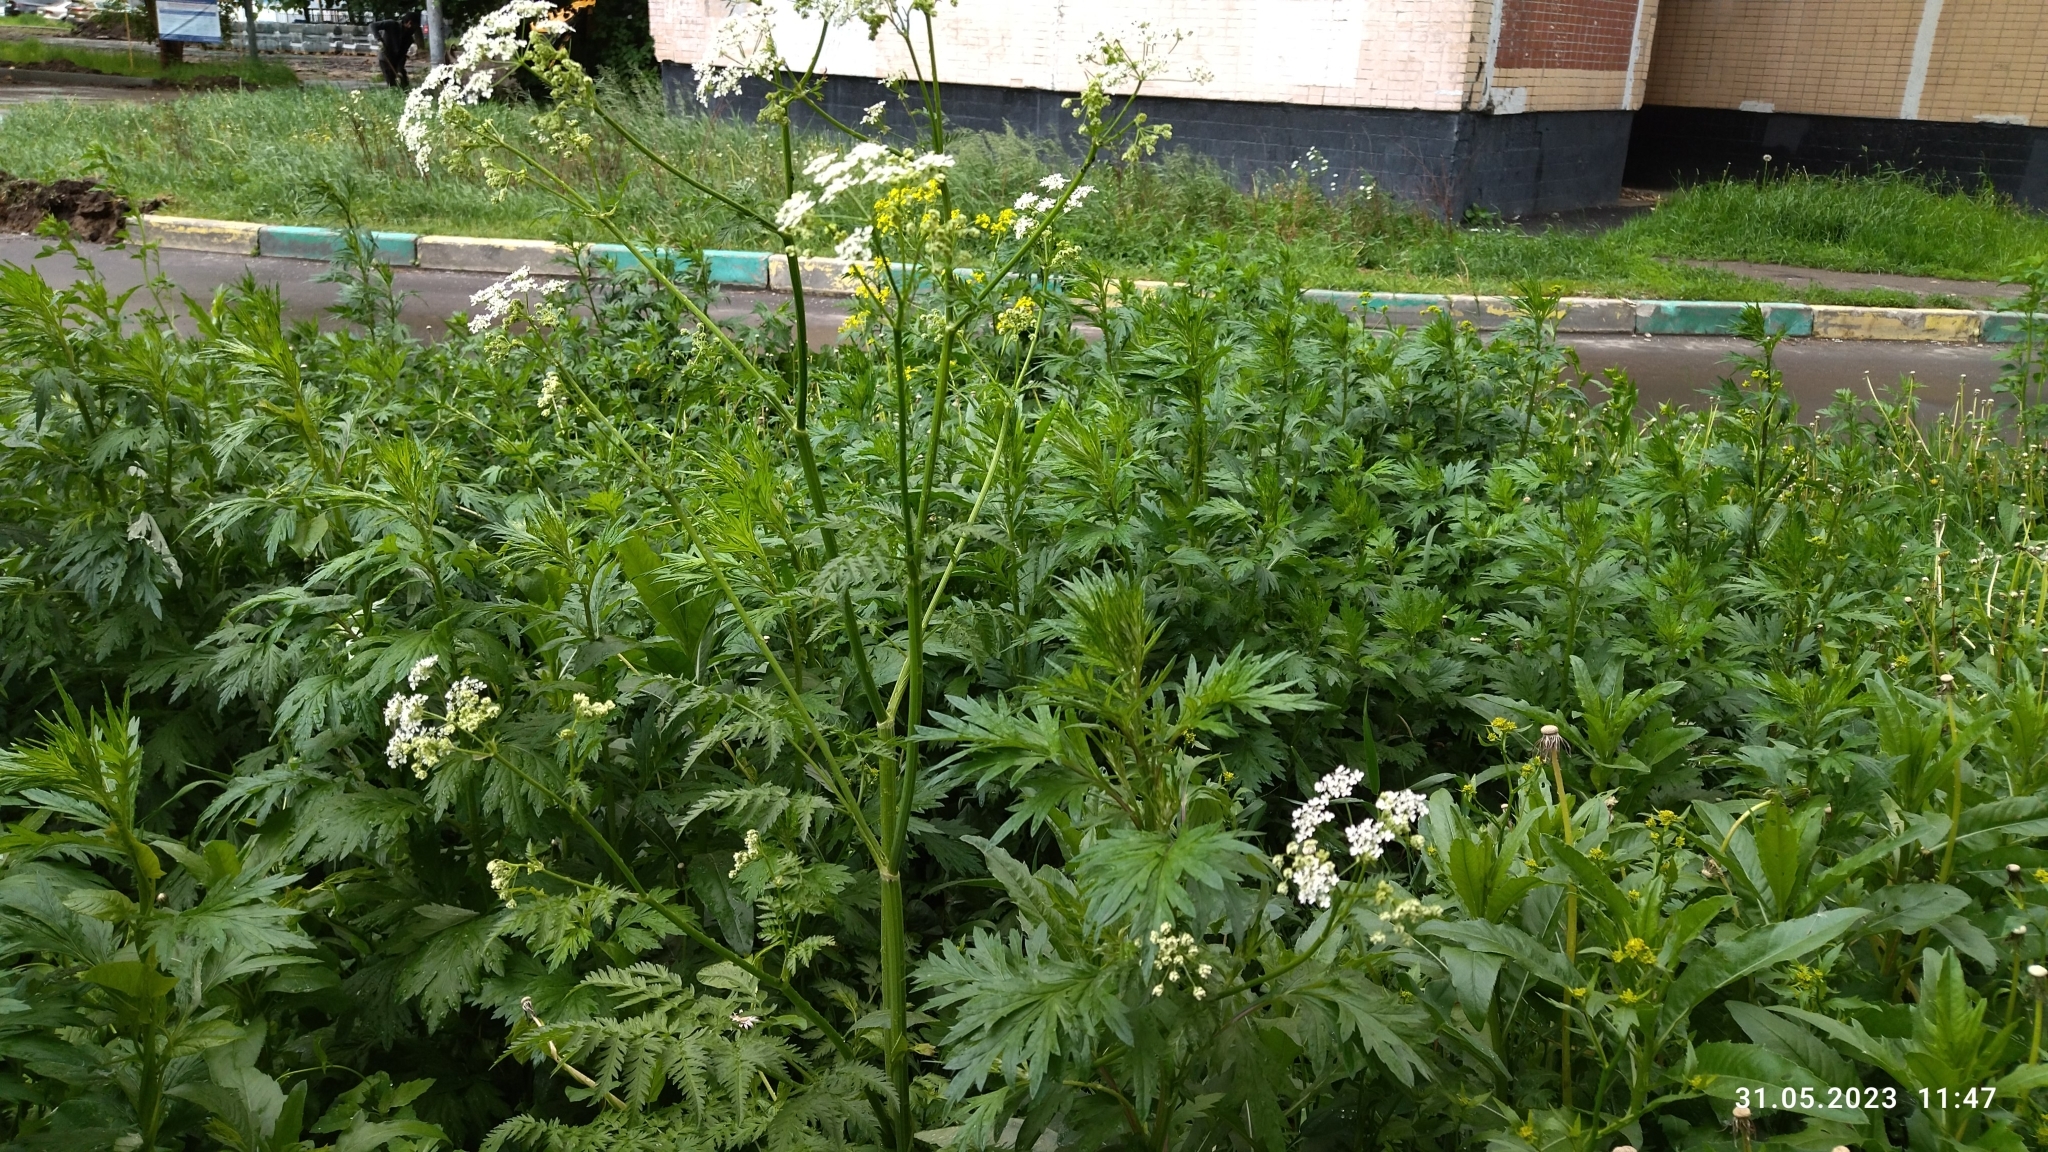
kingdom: Plantae
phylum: Tracheophyta
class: Magnoliopsida
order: Apiales
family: Apiaceae
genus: Anthriscus
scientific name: Anthriscus sylvestris
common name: Cow parsley
